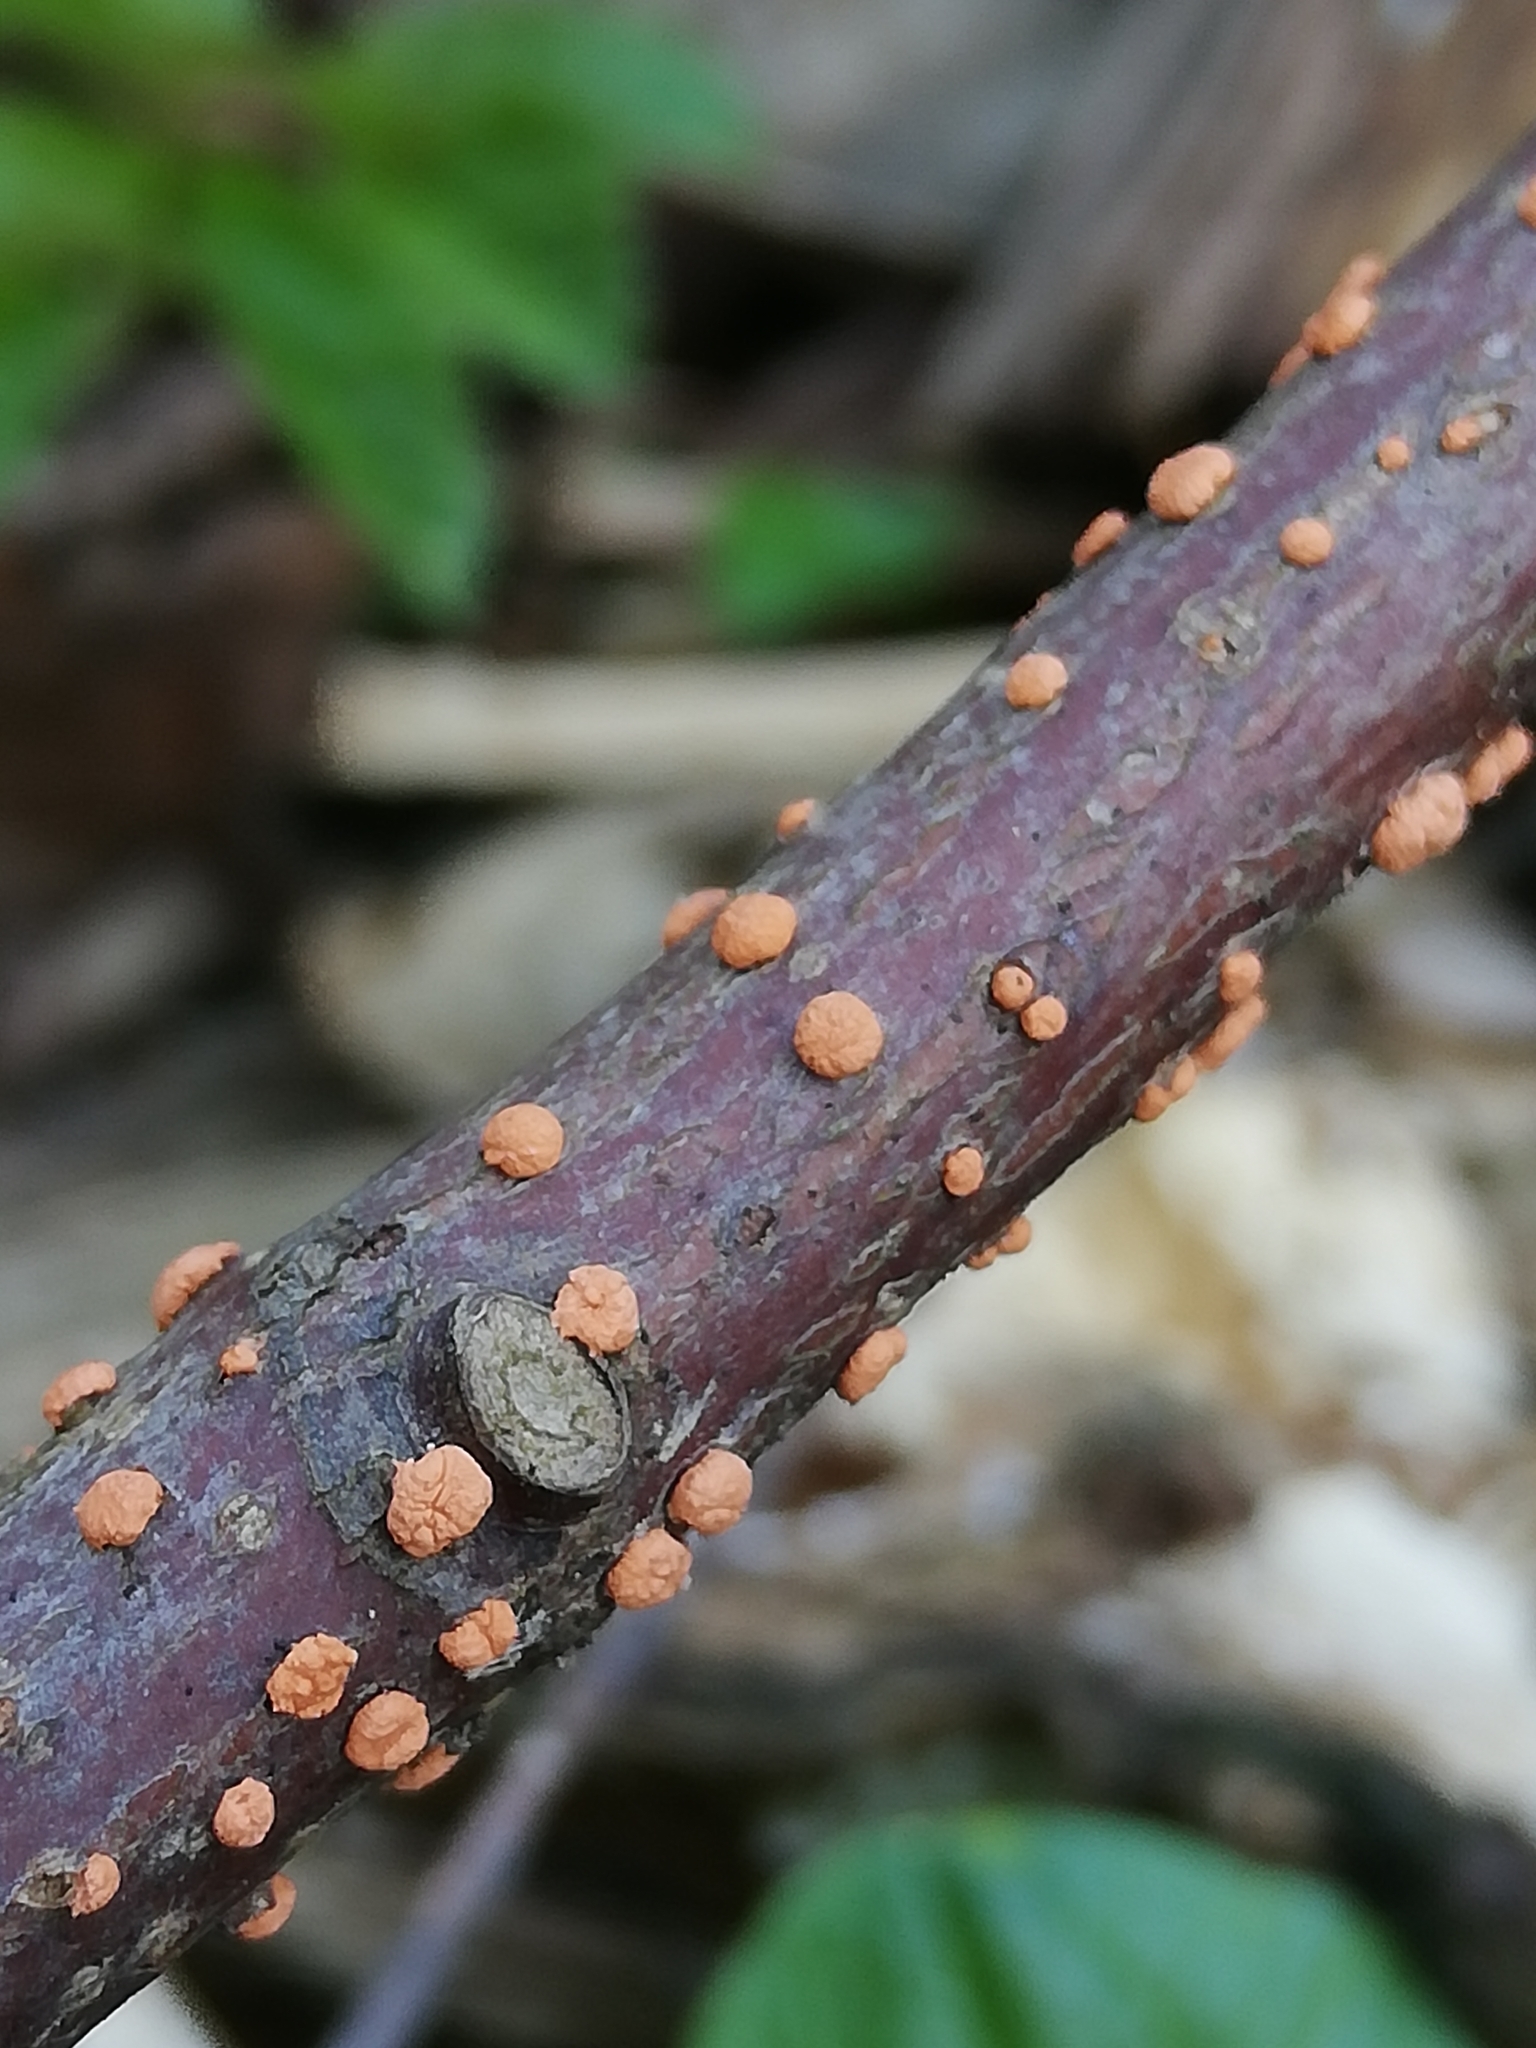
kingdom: Fungi
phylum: Ascomycota
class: Sordariomycetes
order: Hypocreales
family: Nectriaceae
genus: Nectria
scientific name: Nectria cinnabarina
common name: Coral spot
